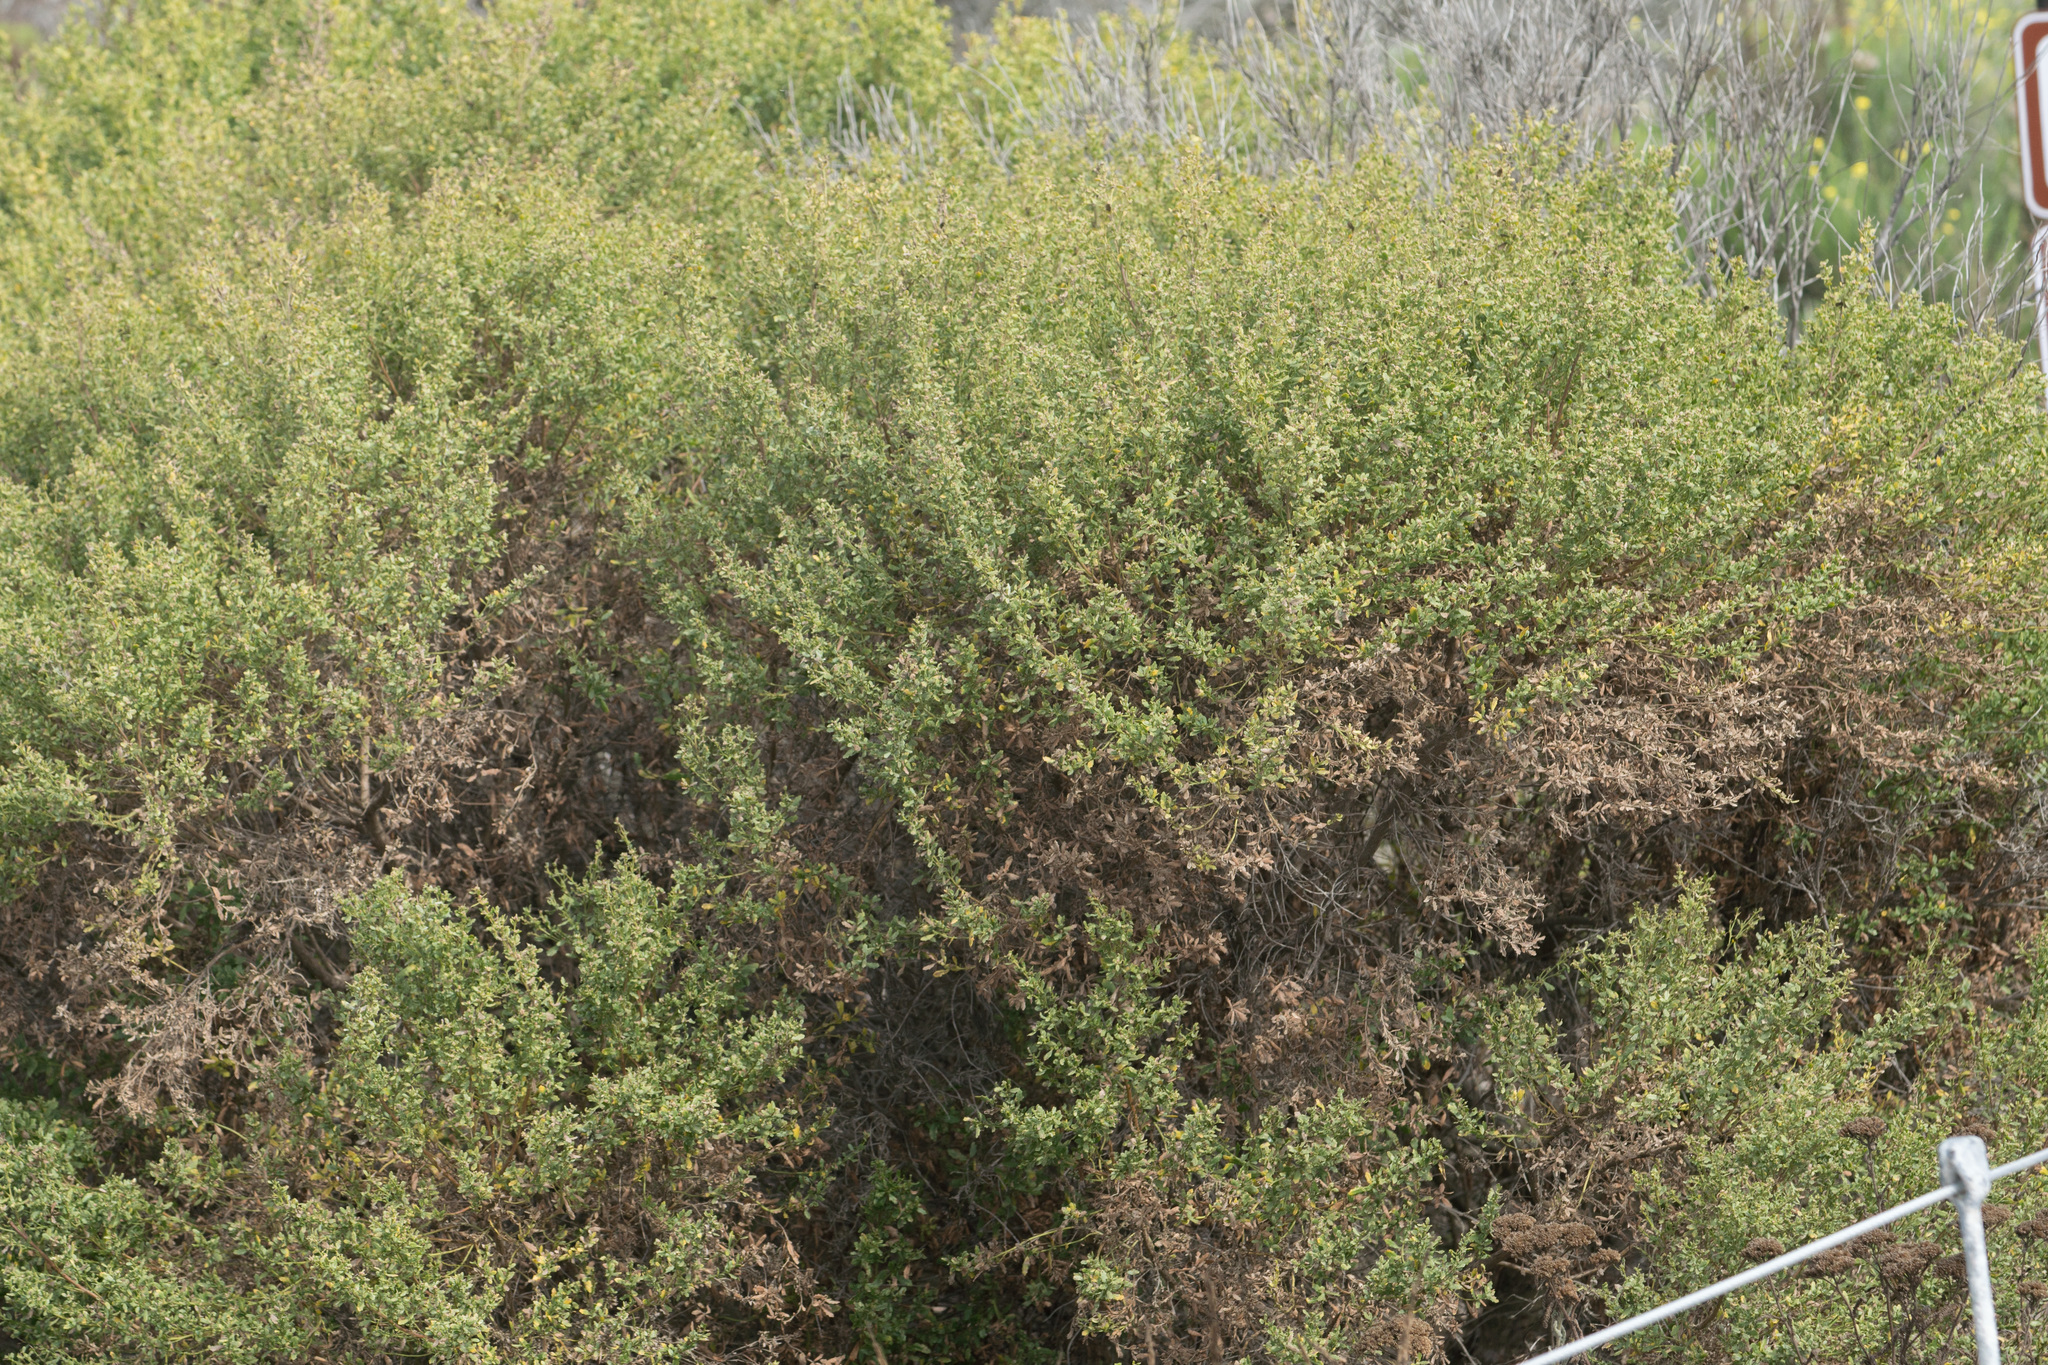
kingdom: Plantae
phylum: Tracheophyta
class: Magnoliopsida
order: Asterales
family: Asteraceae
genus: Baccharis
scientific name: Baccharis pilularis
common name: Coyotebrush
